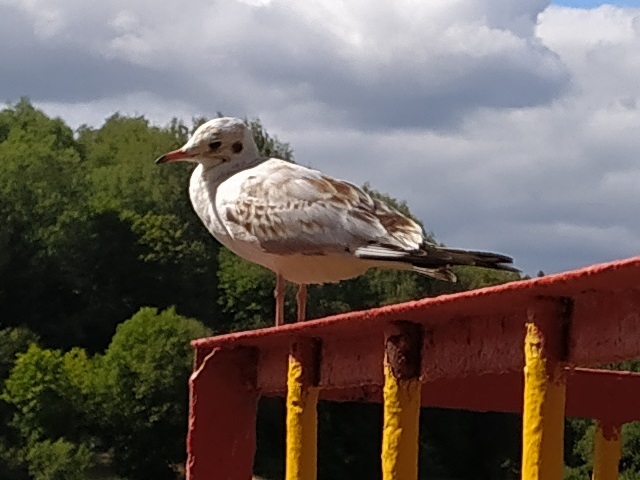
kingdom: Animalia
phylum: Chordata
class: Aves
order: Charadriiformes
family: Laridae
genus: Chroicocephalus
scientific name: Chroicocephalus ridibundus
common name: Black-headed gull
